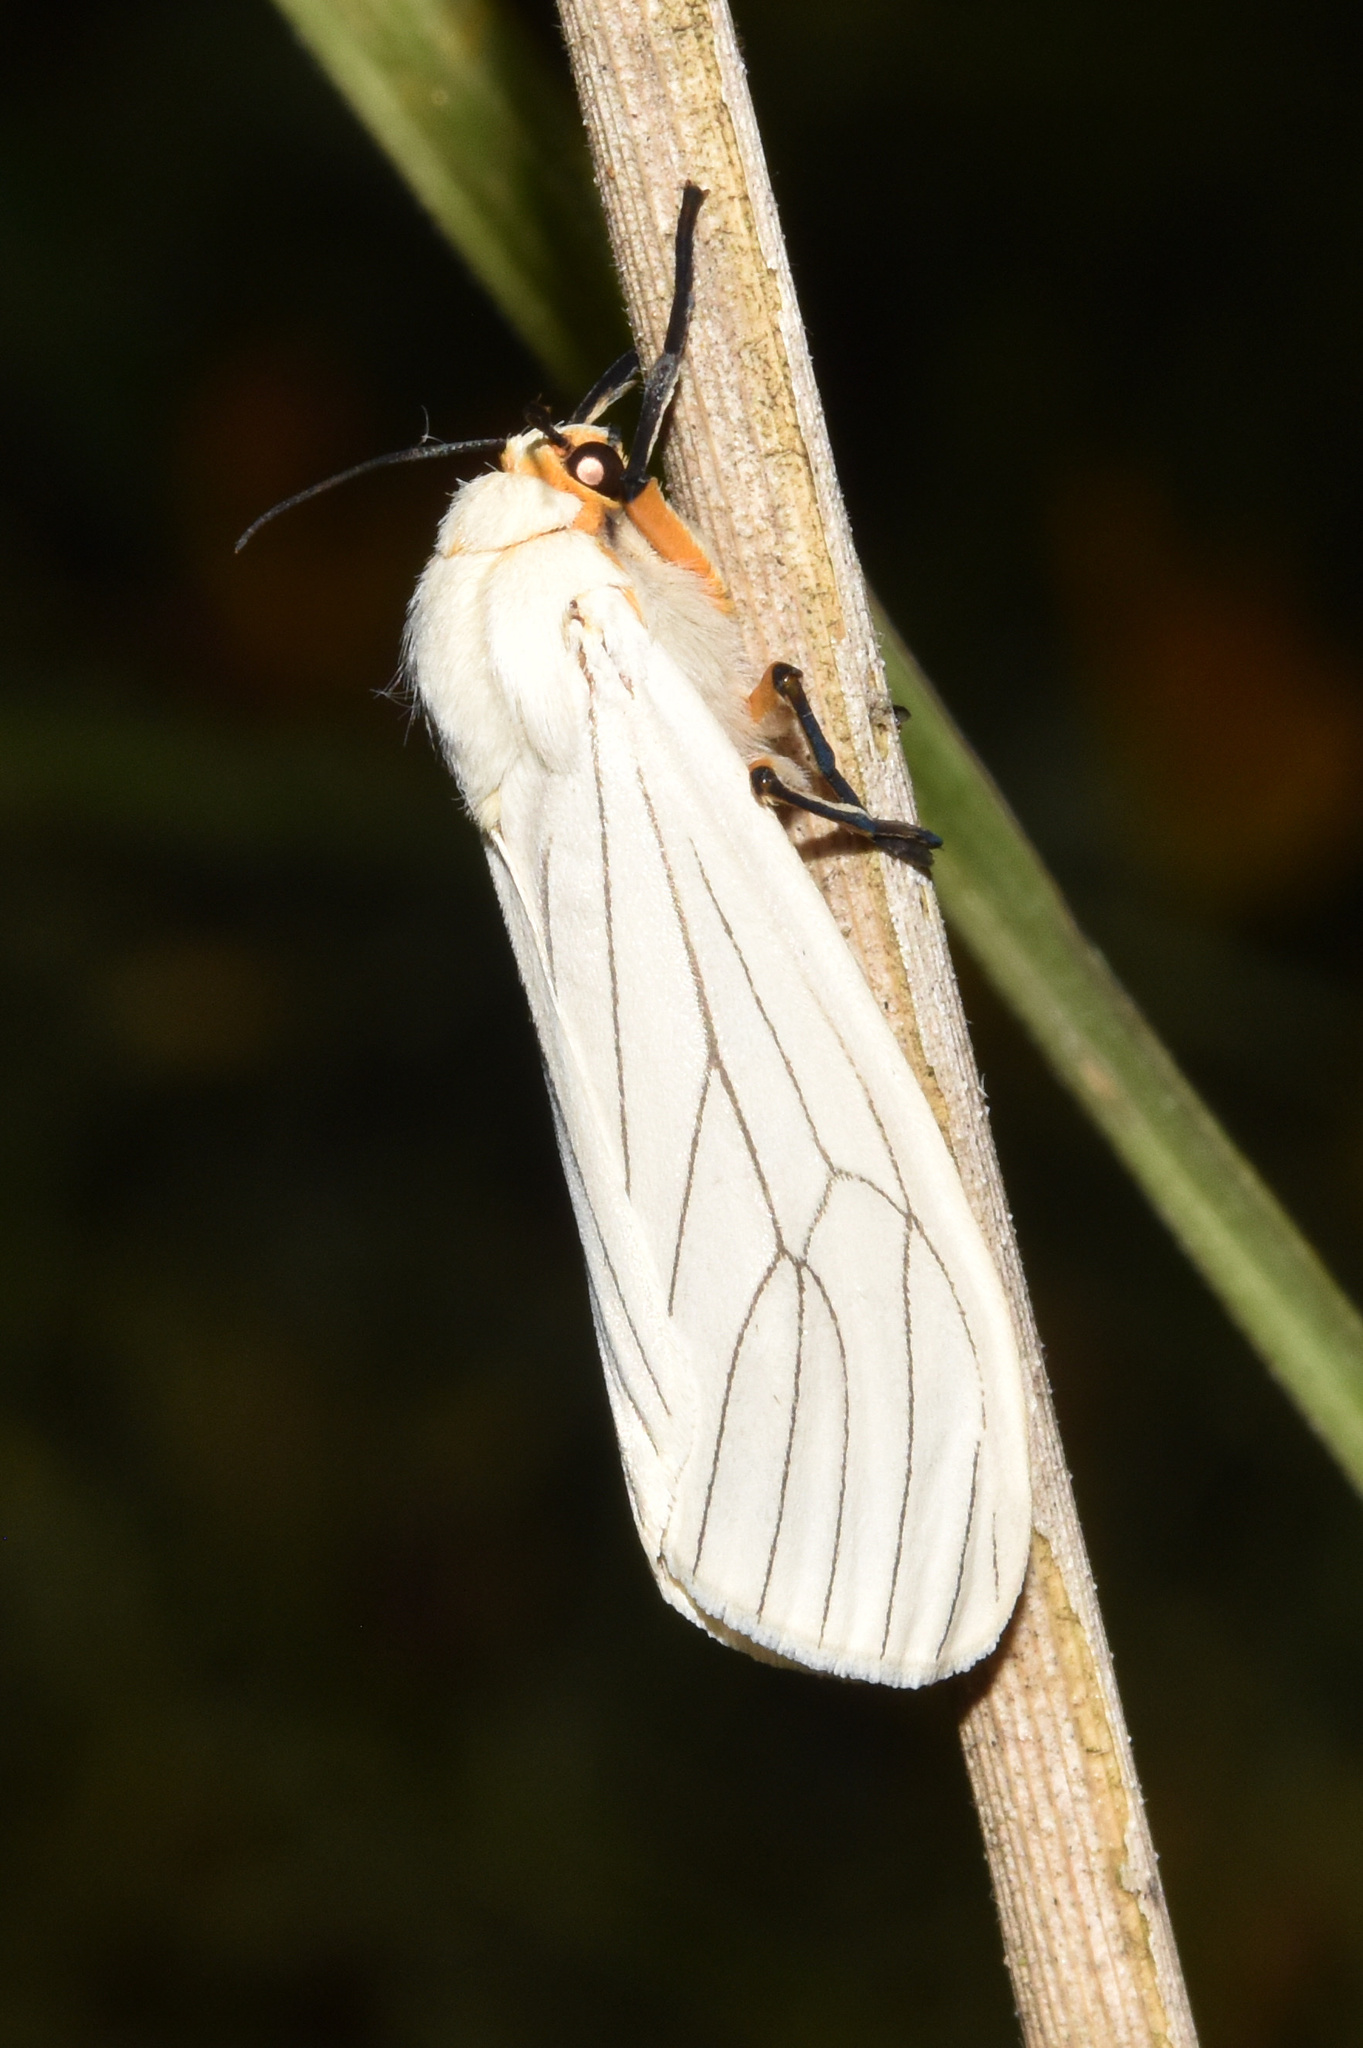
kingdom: Animalia
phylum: Arthropoda
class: Insecta
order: Lepidoptera
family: Erebidae
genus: Ustjuzhania
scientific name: Ustjuzhania lineata
